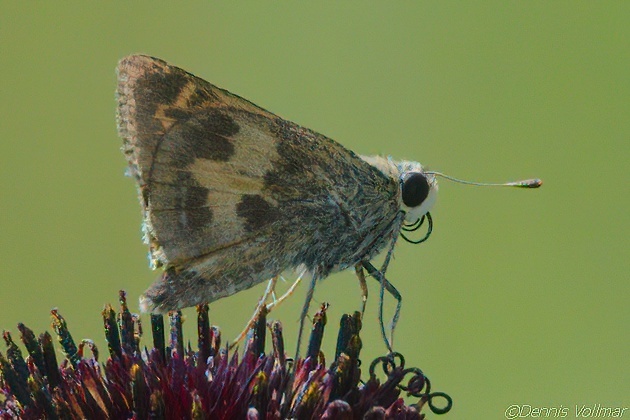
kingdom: Animalia
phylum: Arthropoda
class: Insecta
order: Lepidoptera
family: Hesperiidae
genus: Polites
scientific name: Polites vibex
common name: Whirlabout
